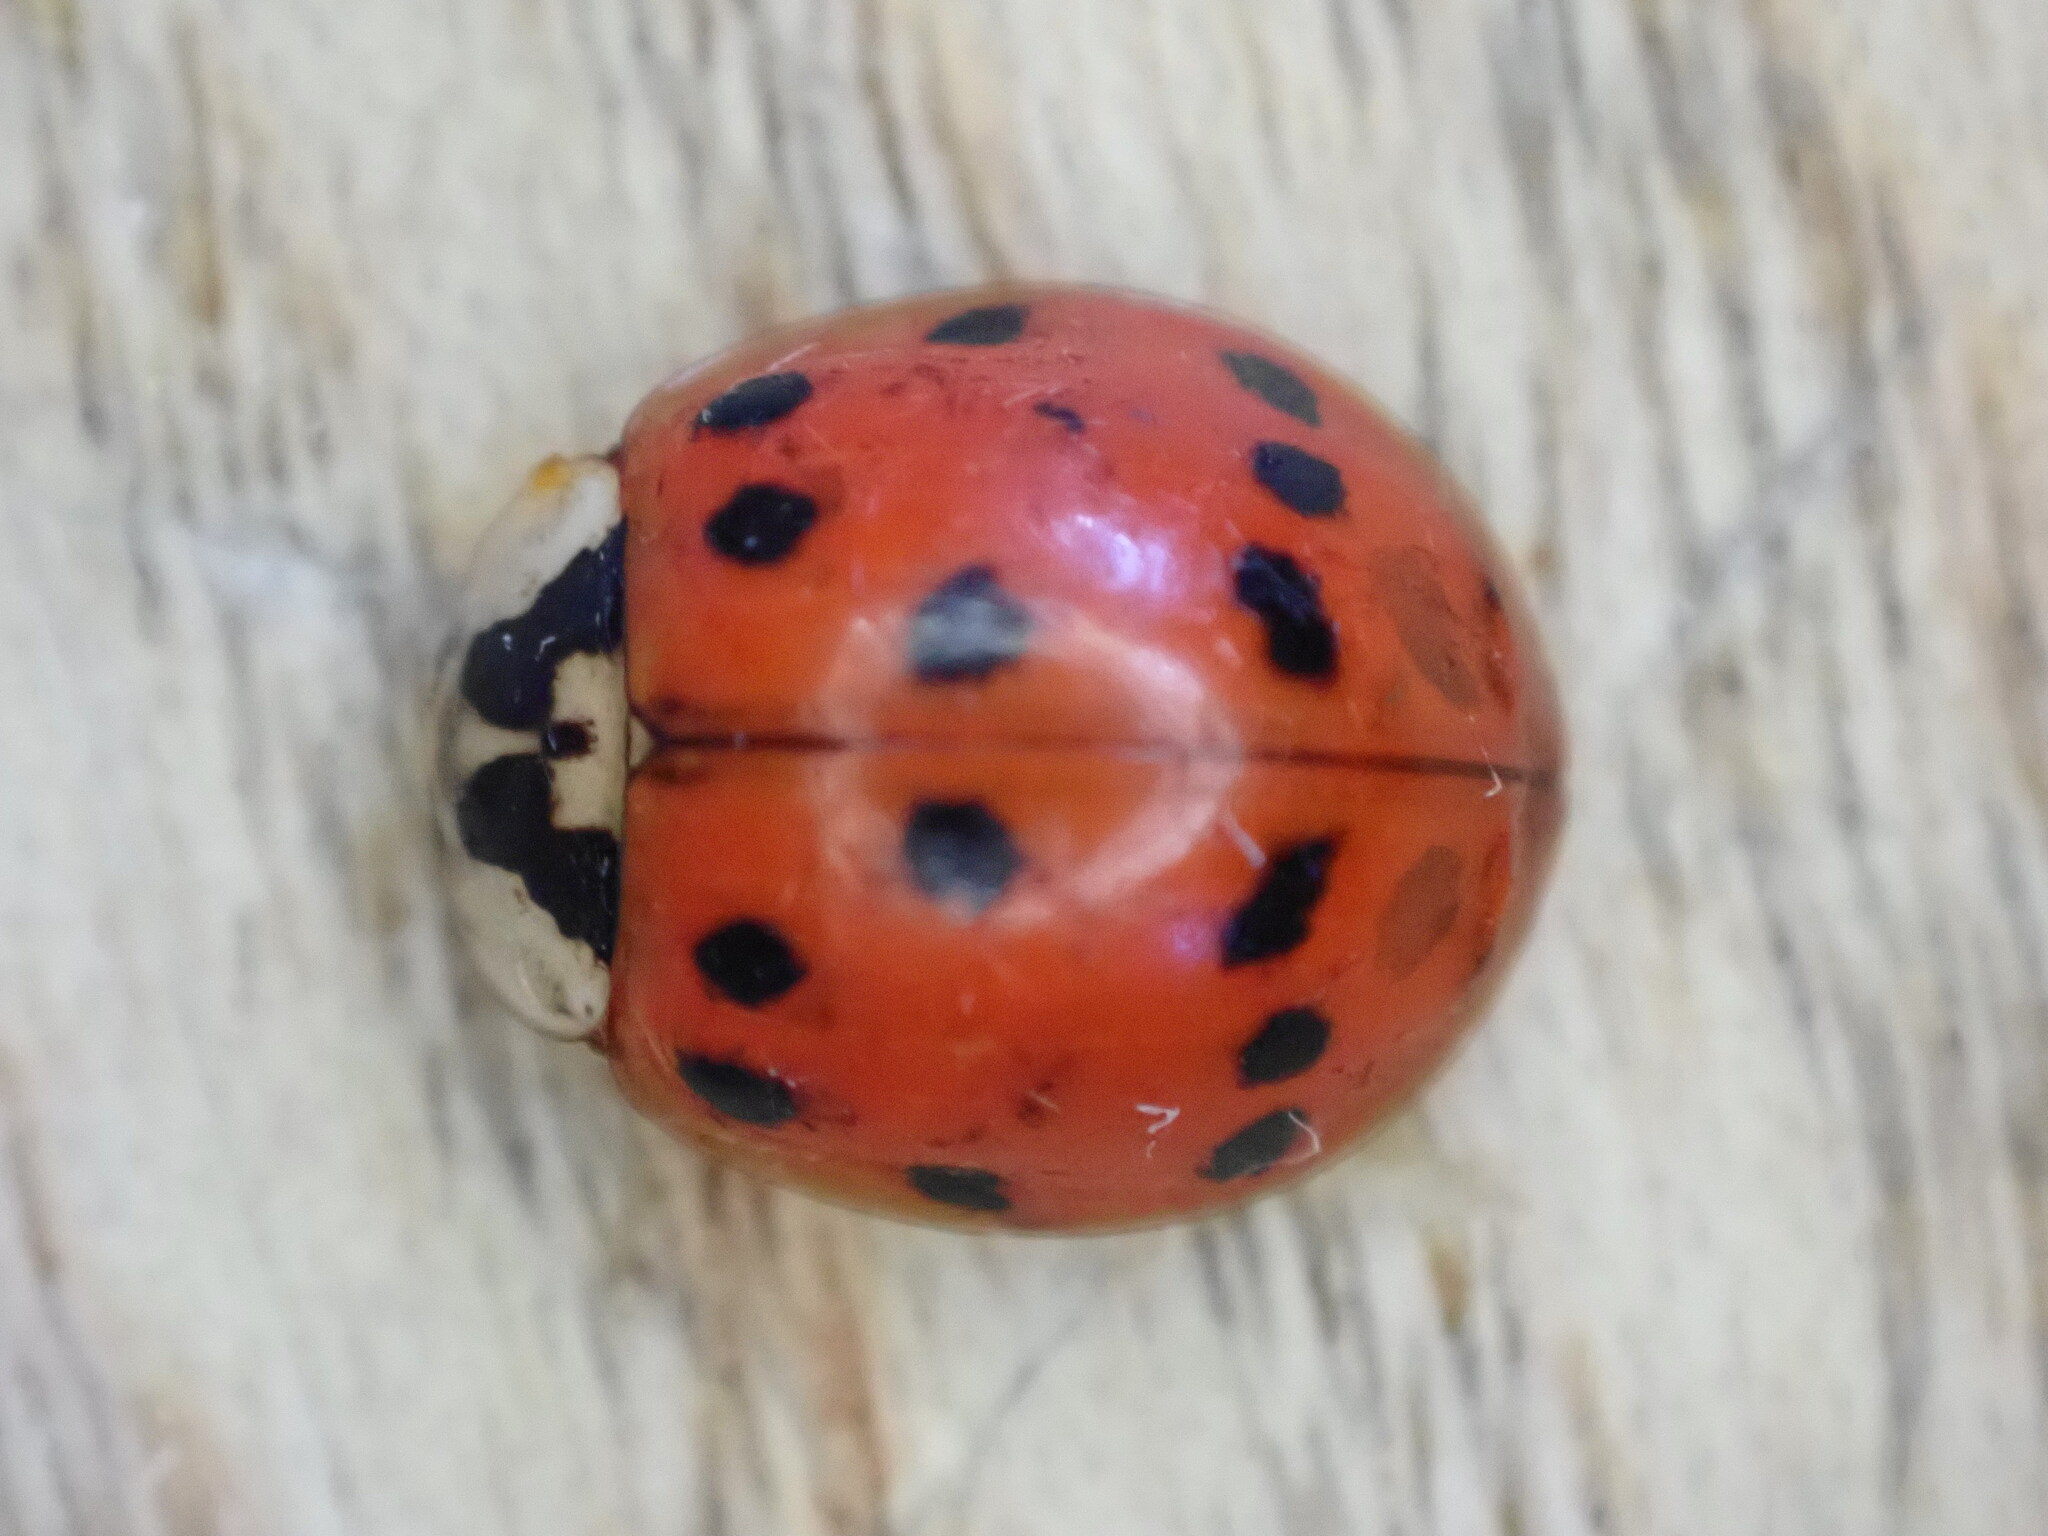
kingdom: Animalia
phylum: Arthropoda
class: Insecta
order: Coleoptera
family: Coccinellidae
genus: Harmonia
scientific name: Harmonia axyridis
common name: Harlequin ladybird
